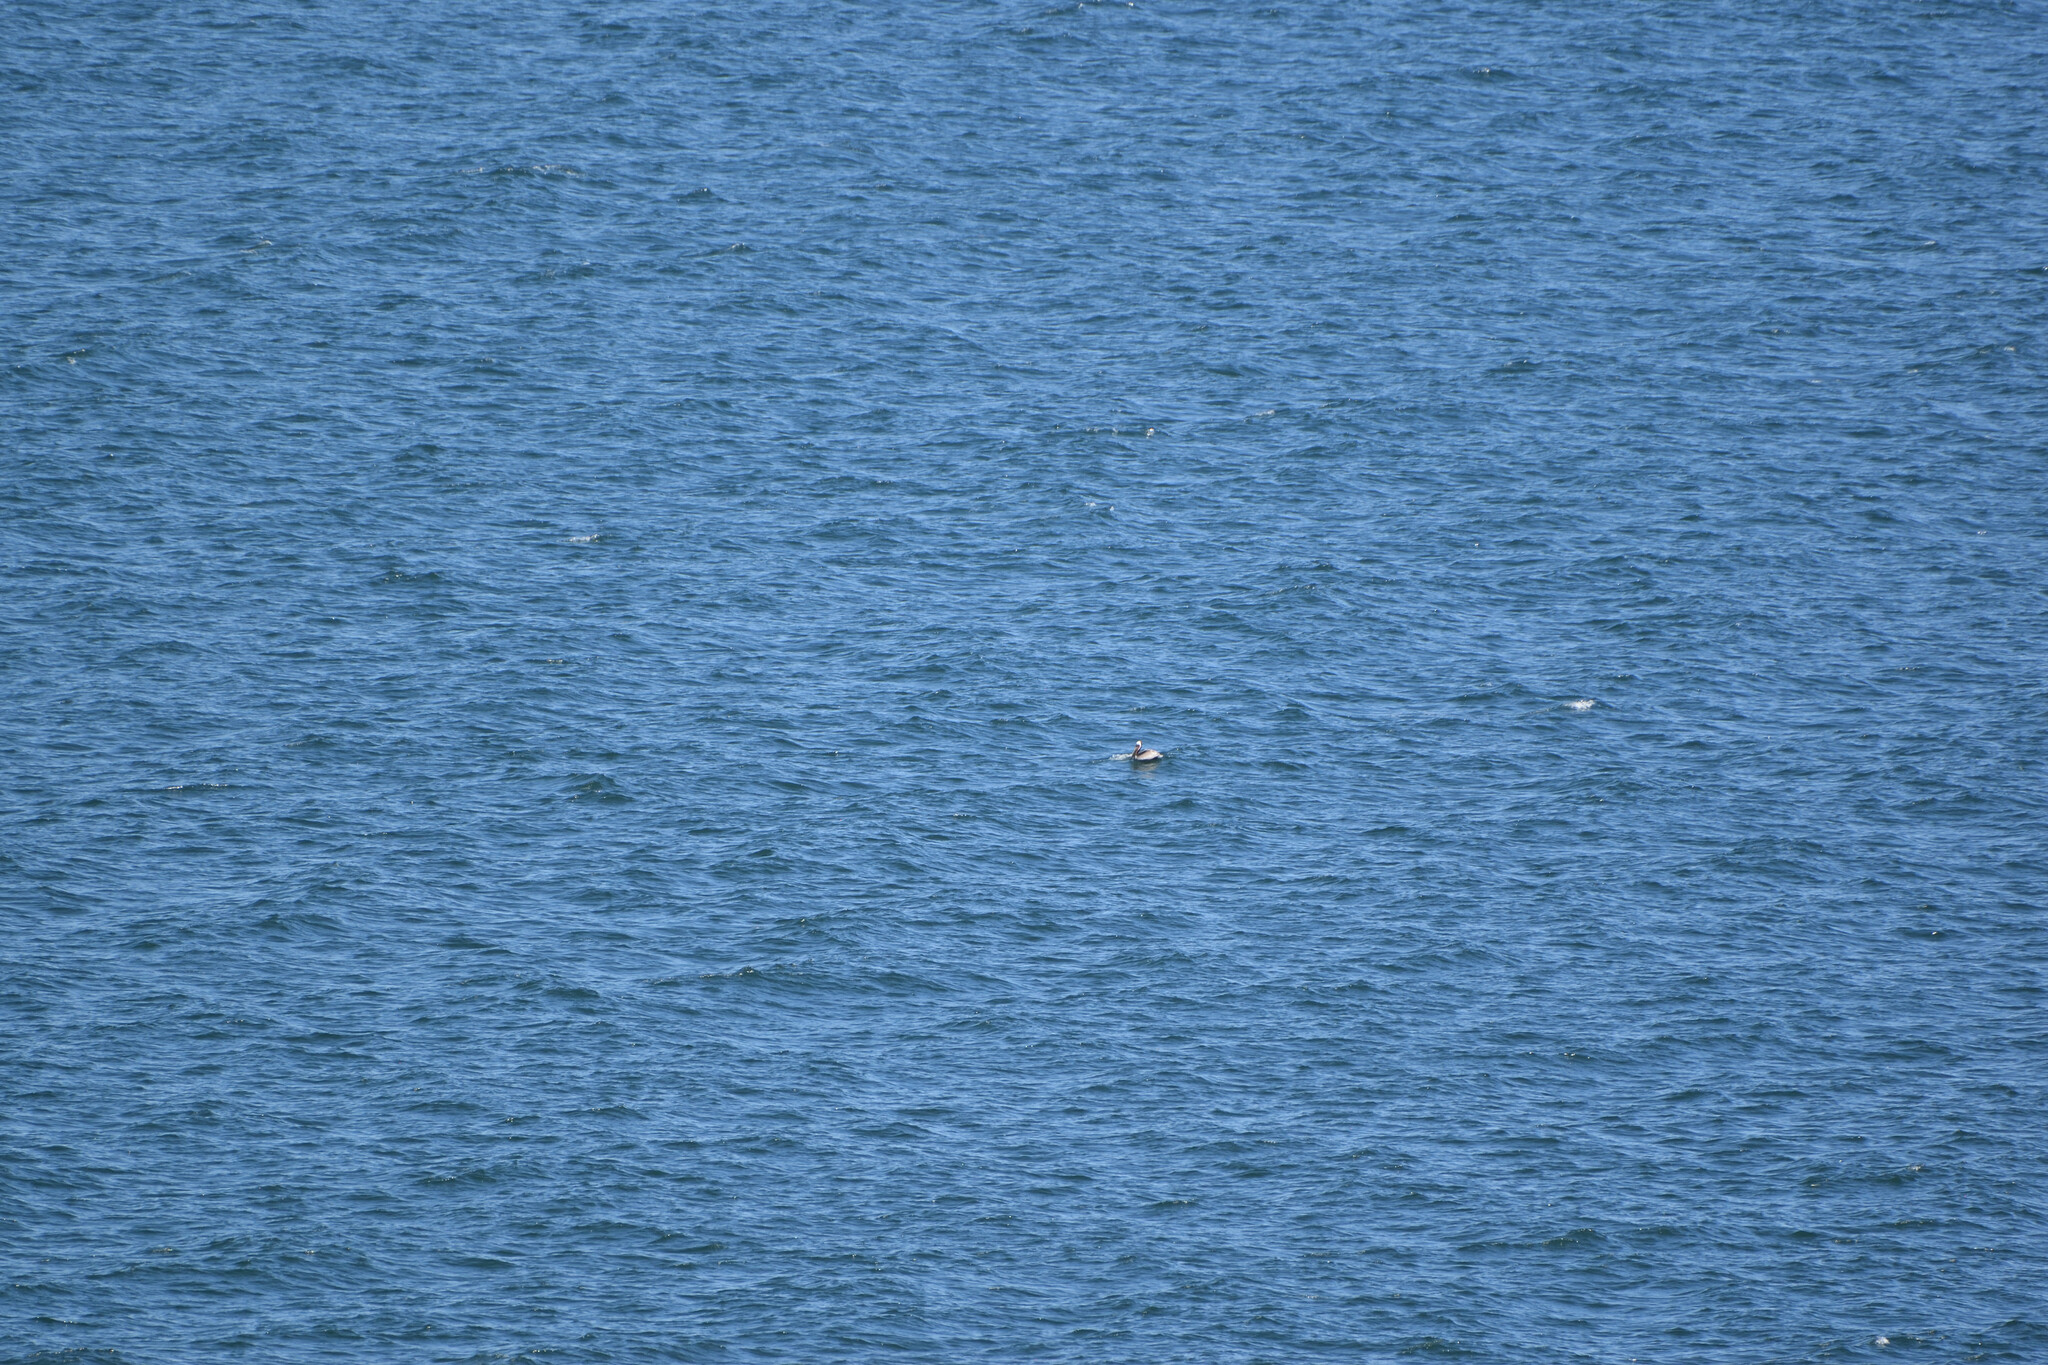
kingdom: Animalia
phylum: Chordata
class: Aves
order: Pelecaniformes
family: Pelecanidae
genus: Pelecanus
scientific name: Pelecanus occidentalis
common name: Brown pelican
